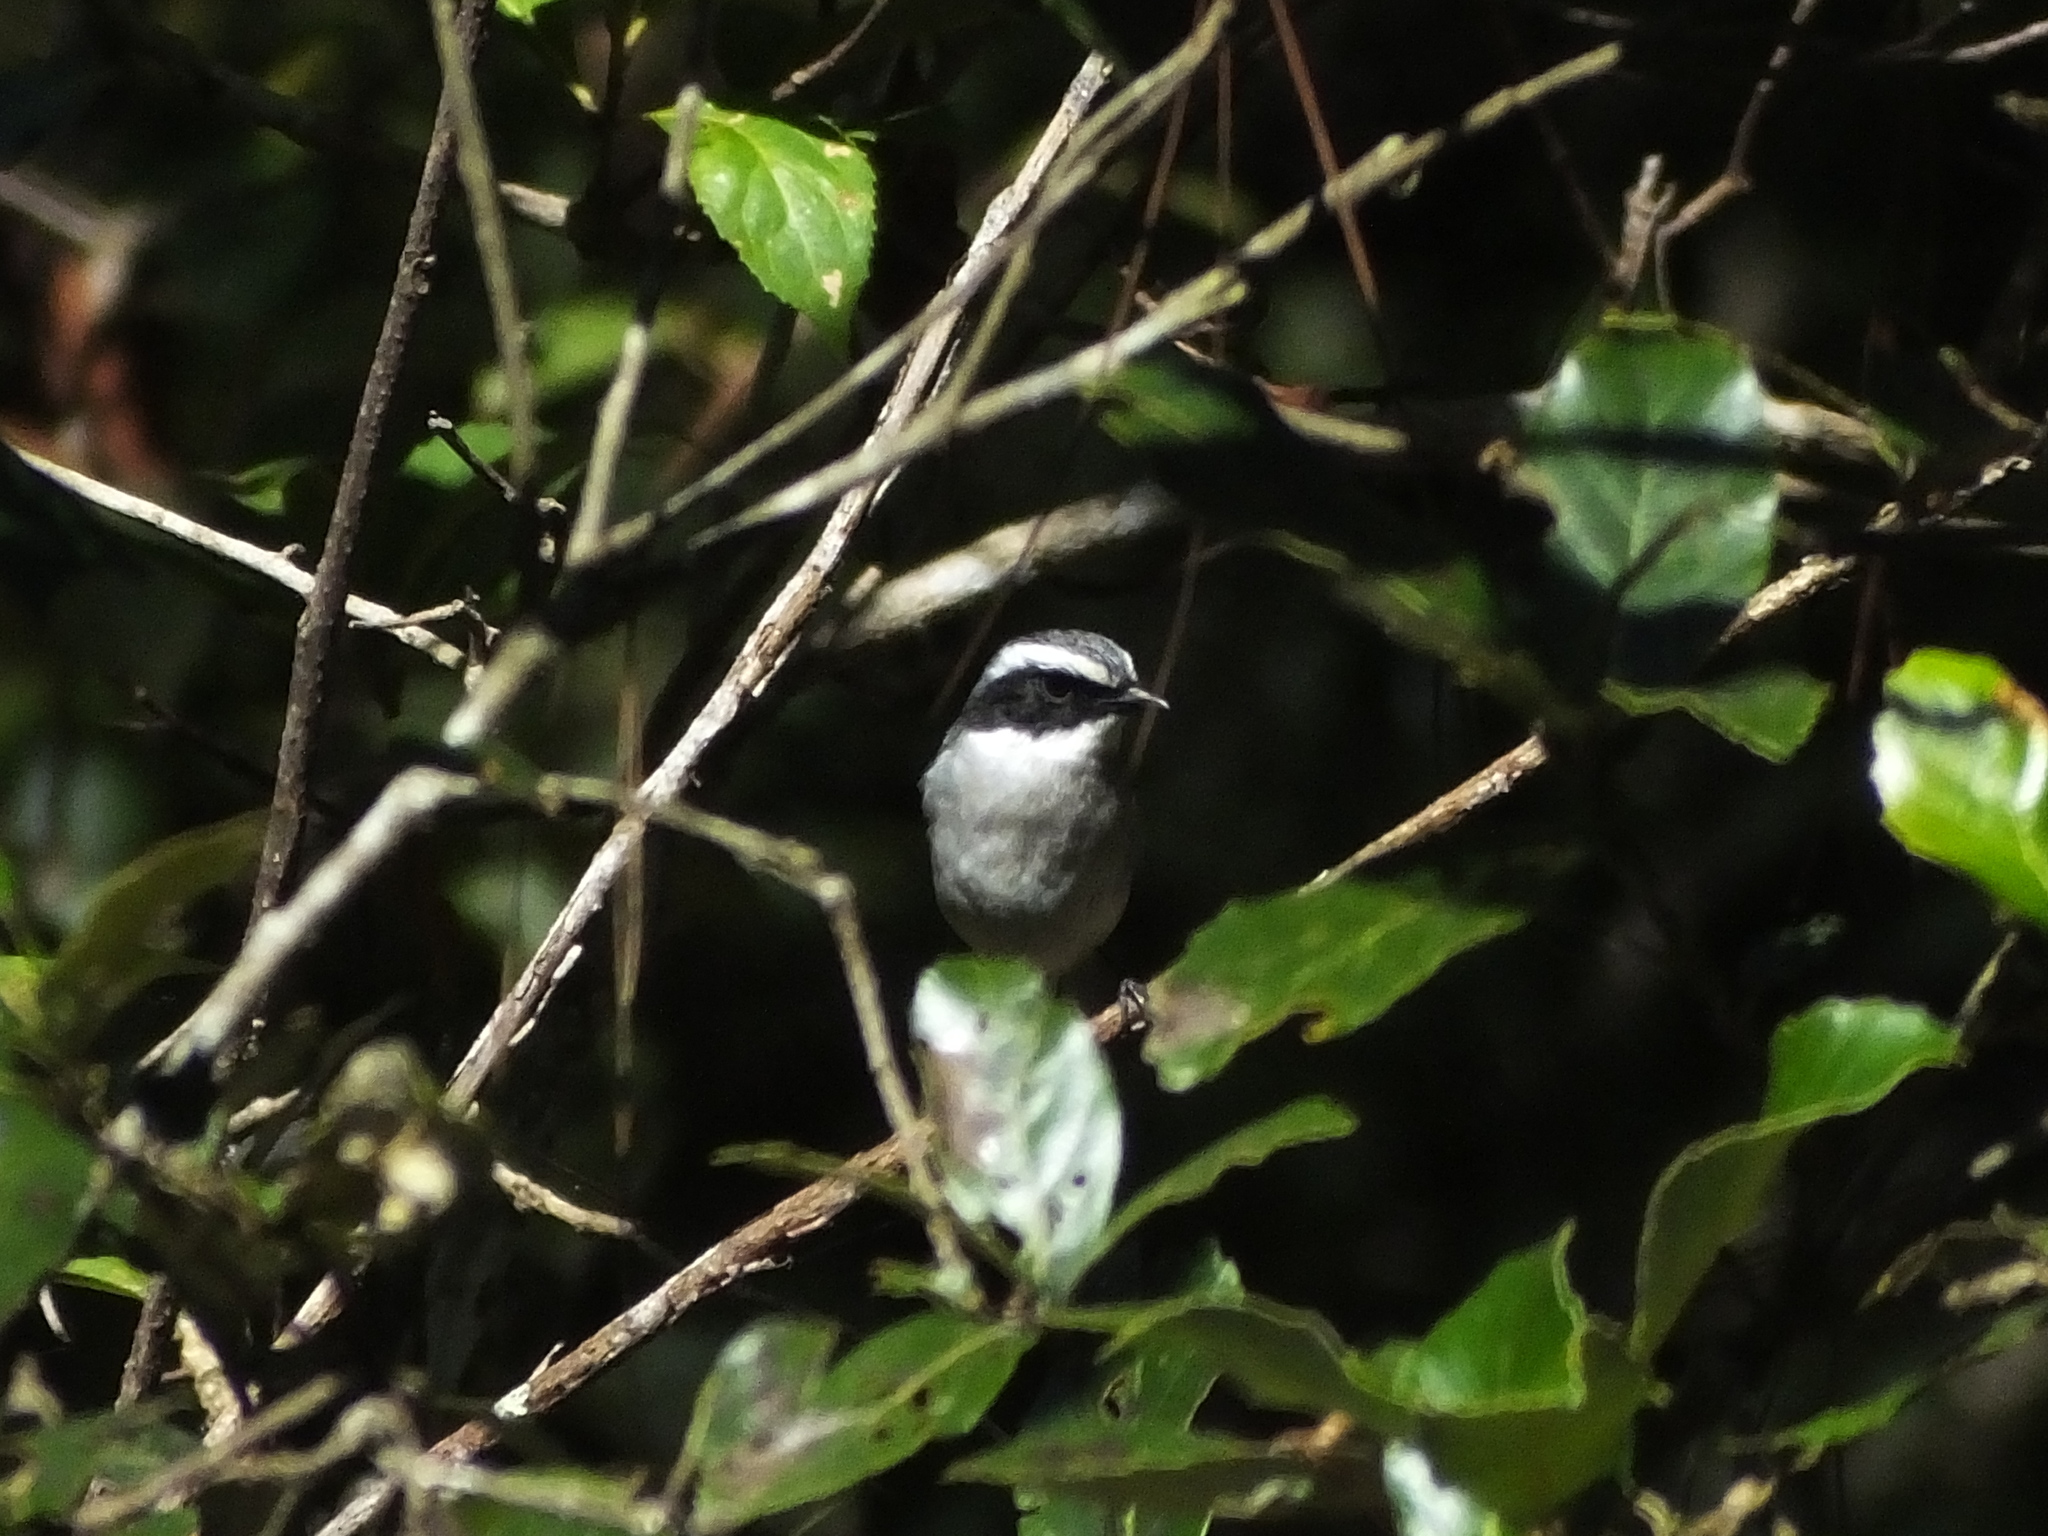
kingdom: Animalia
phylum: Chordata
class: Aves
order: Passeriformes
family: Muscicapidae
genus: Saxicola
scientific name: Saxicola ferreus
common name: Grey bush chat
